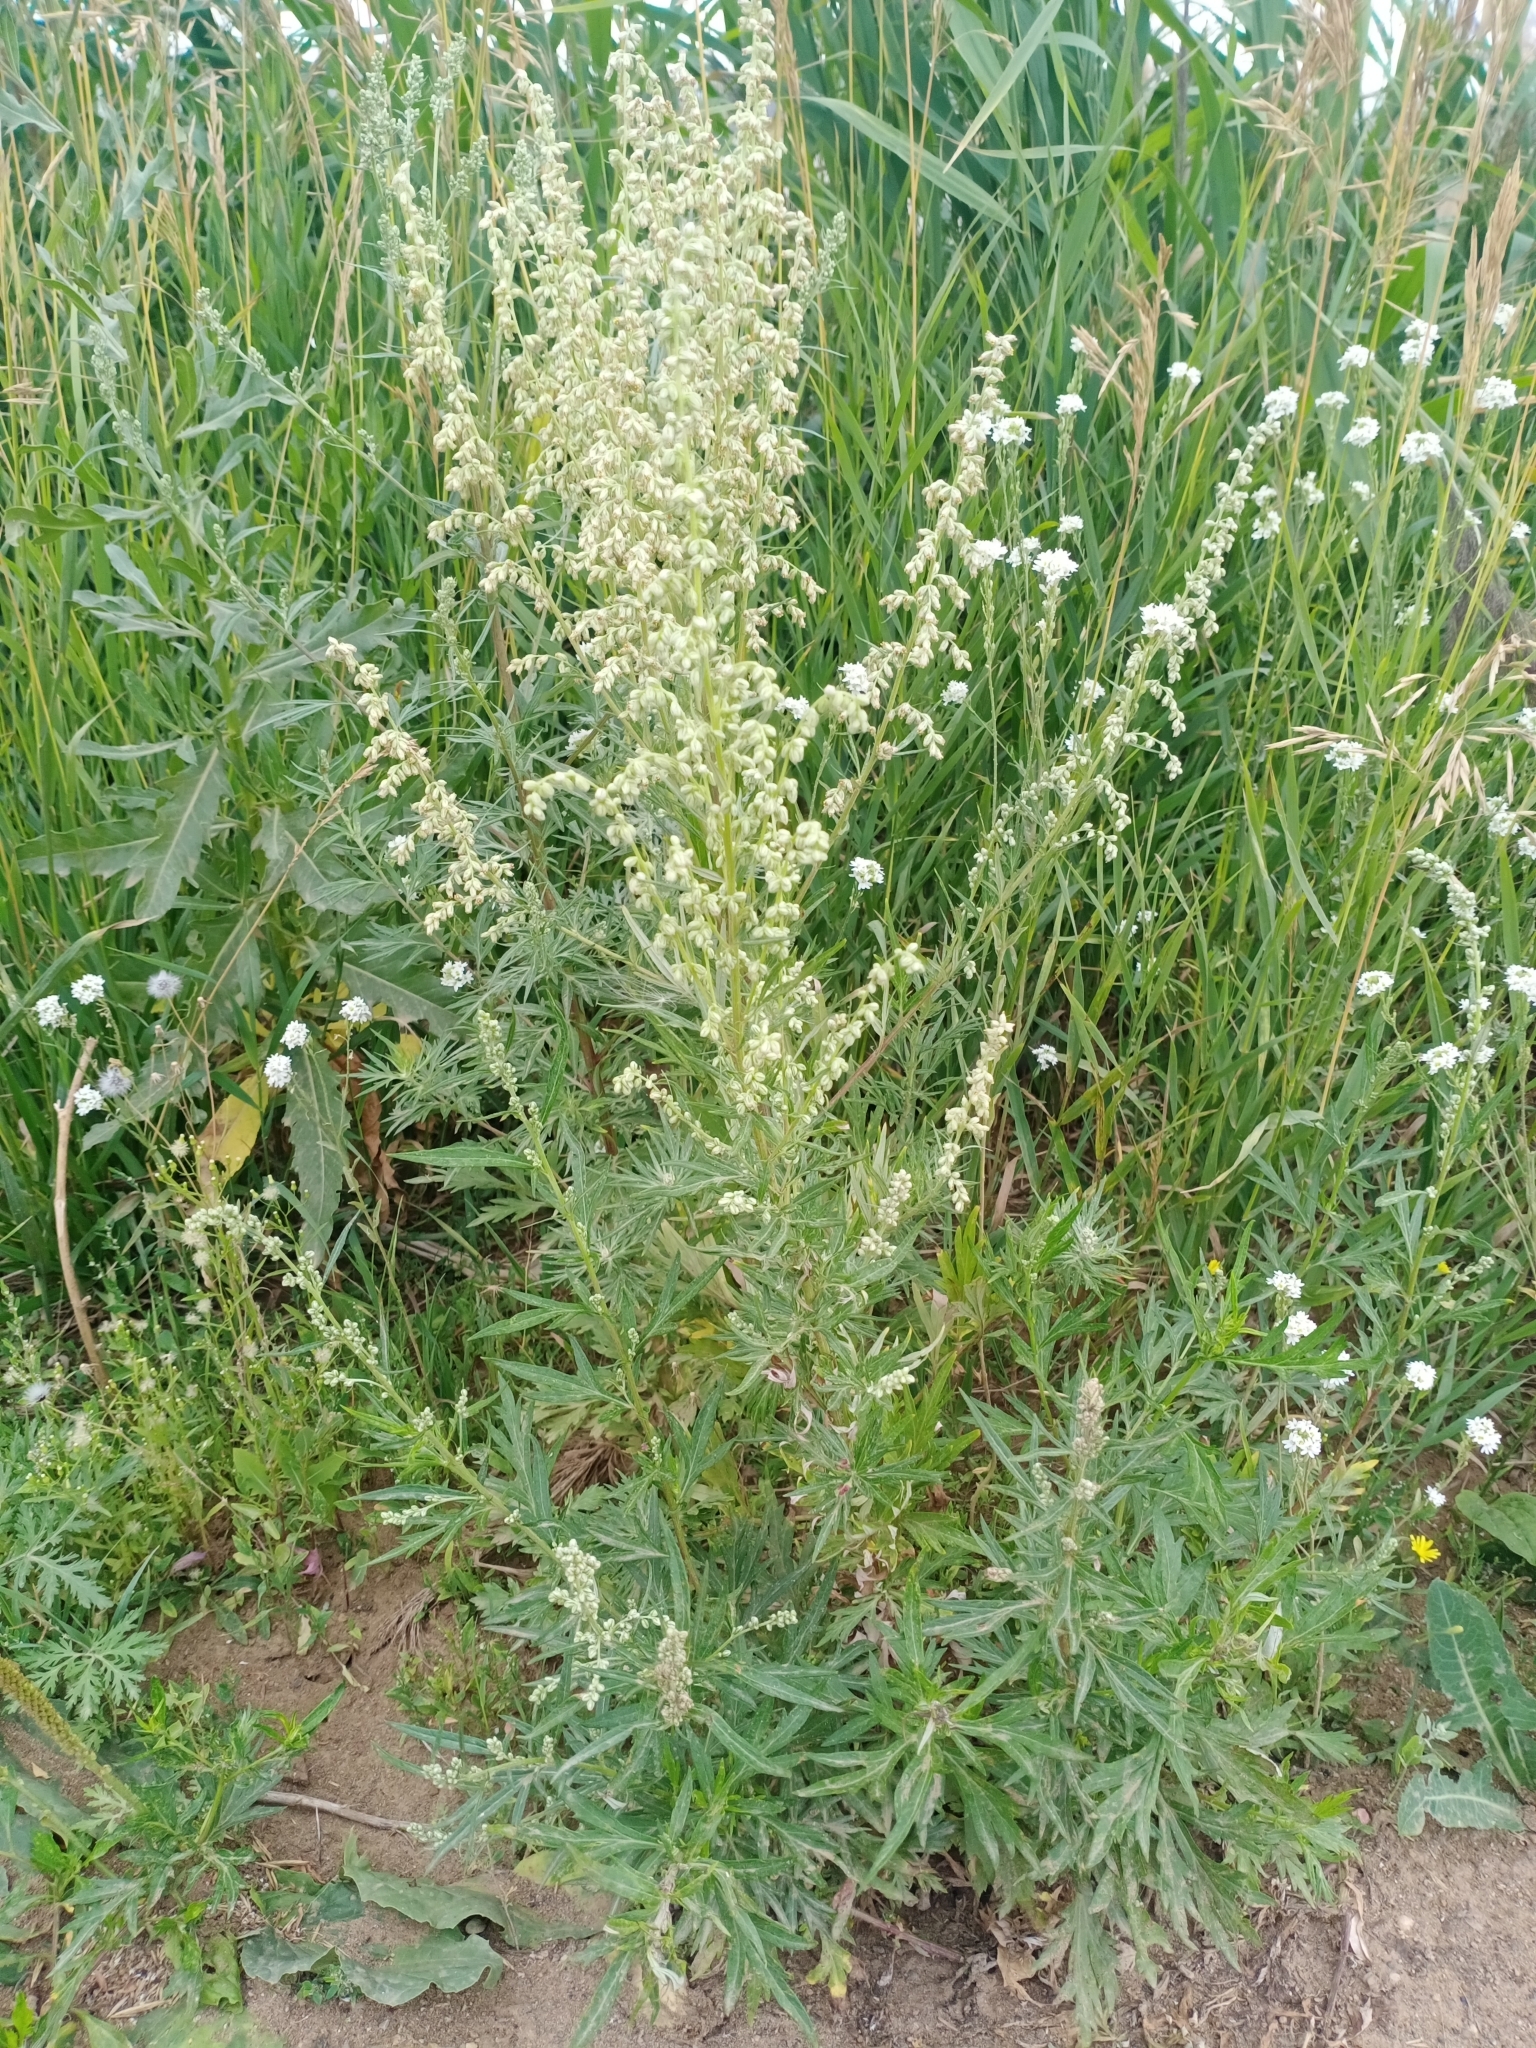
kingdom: Plantae
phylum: Tracheophyta
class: Magnoliopsida
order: Asterales
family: Asteraceae
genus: Artemisia
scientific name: Artemisia vulgaris
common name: Mugwort
